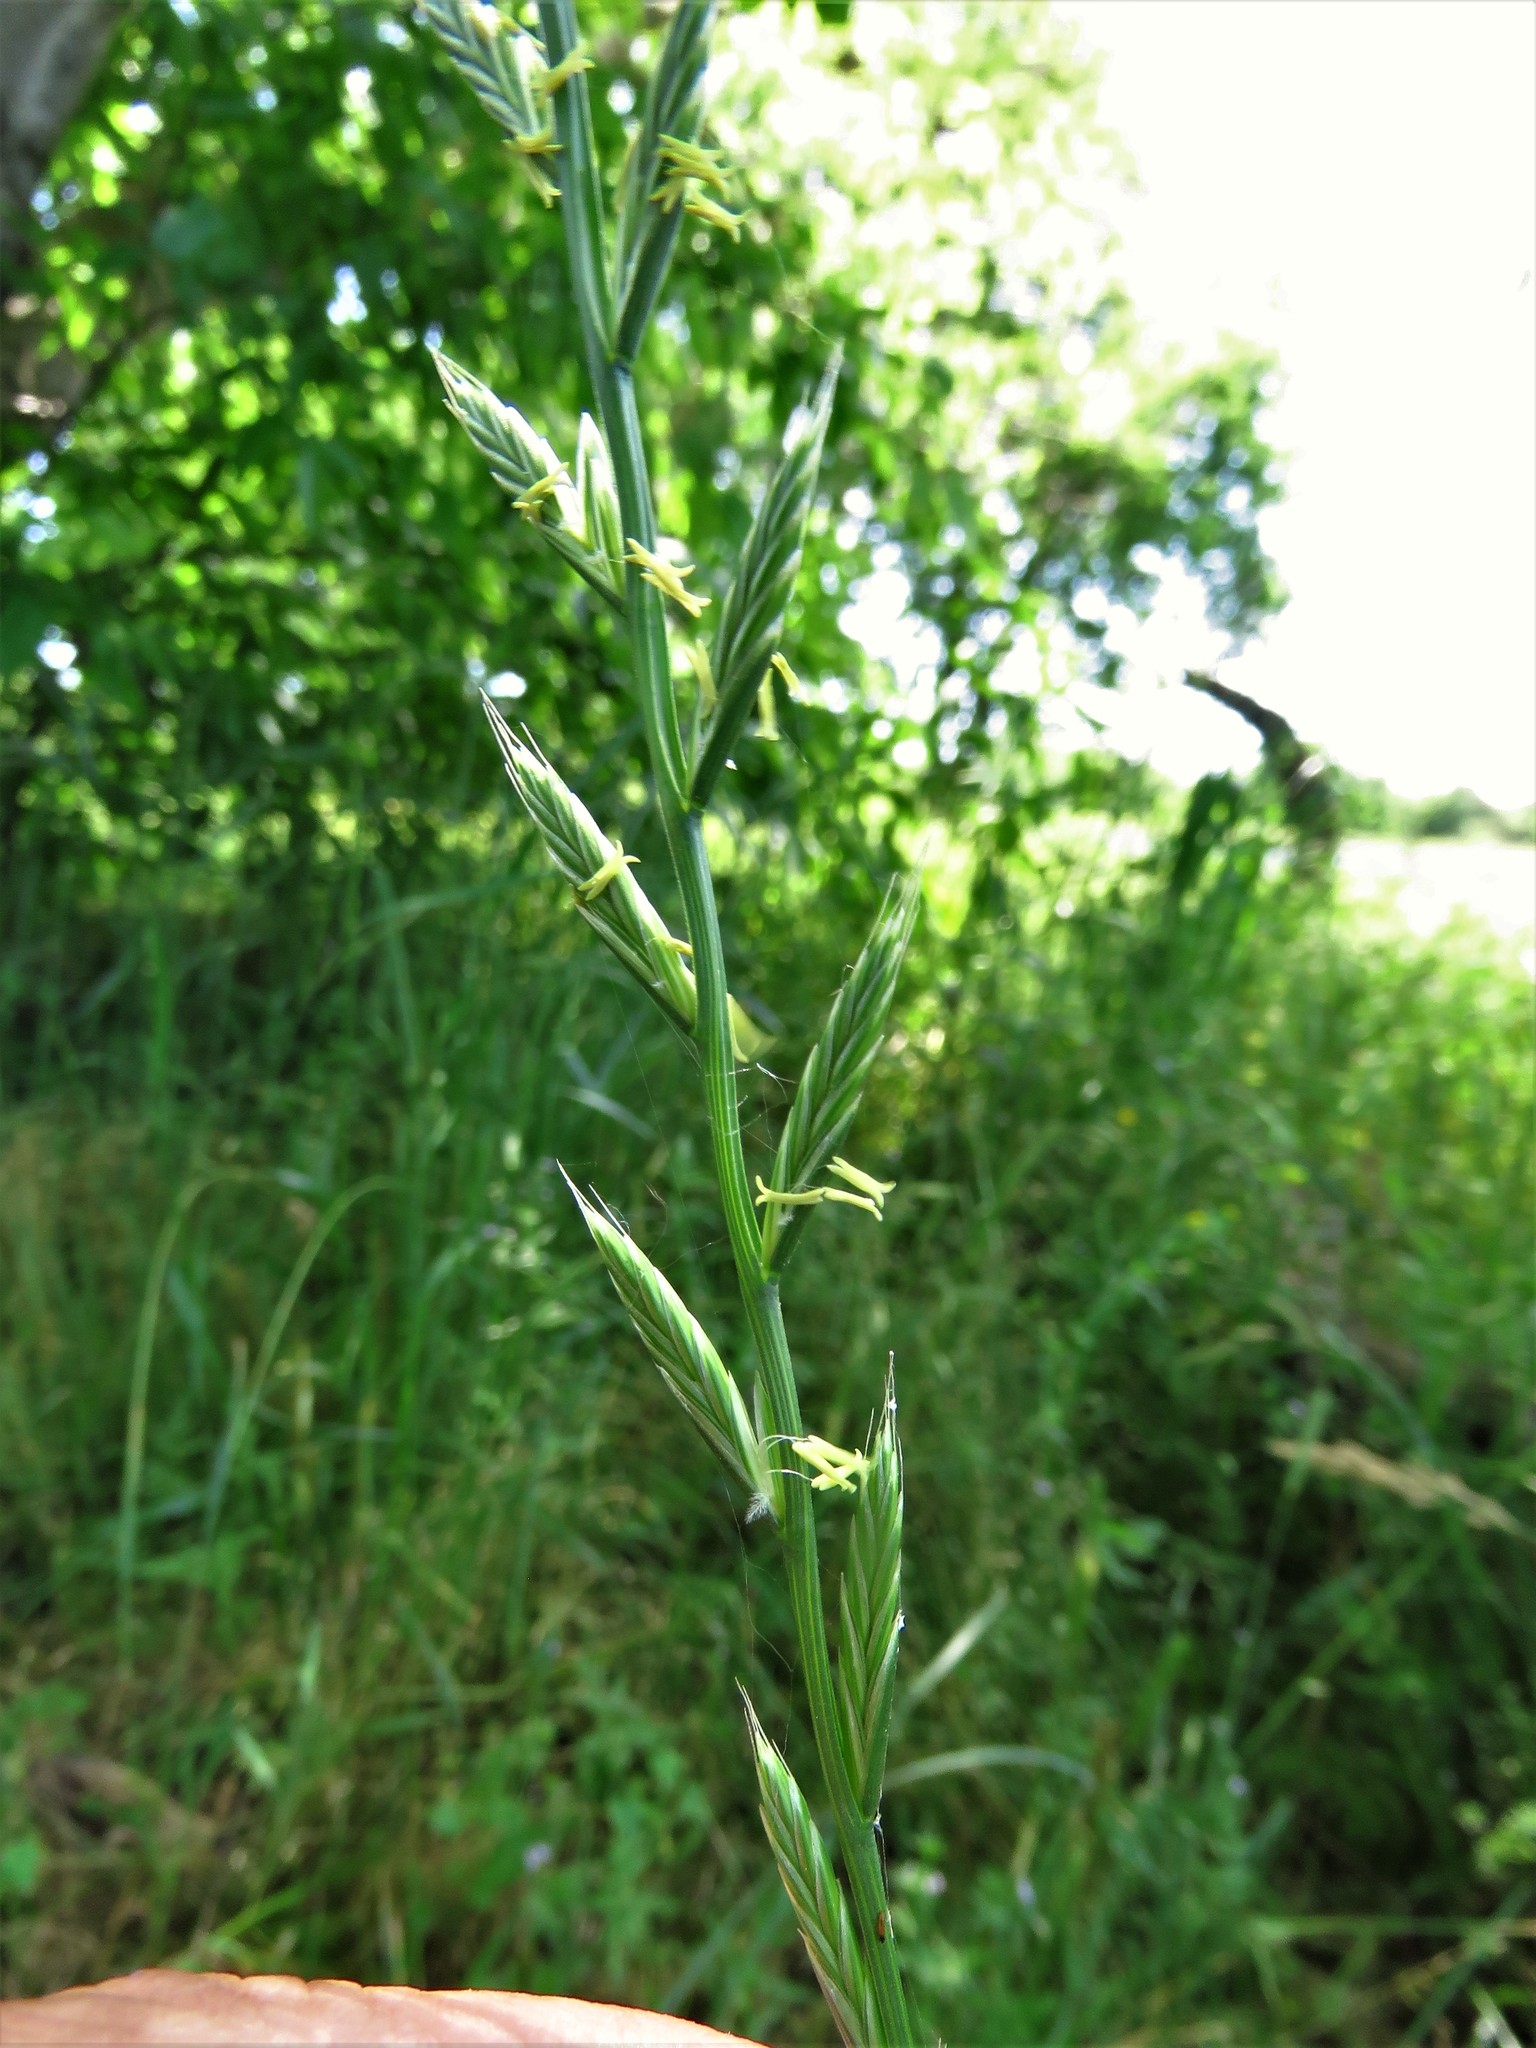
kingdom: Plantae
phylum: Tracheophyta
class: Liliopsida
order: Poales
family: Poaceae
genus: Lolium
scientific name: Lolium perenne
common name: Perennial ryegrass
